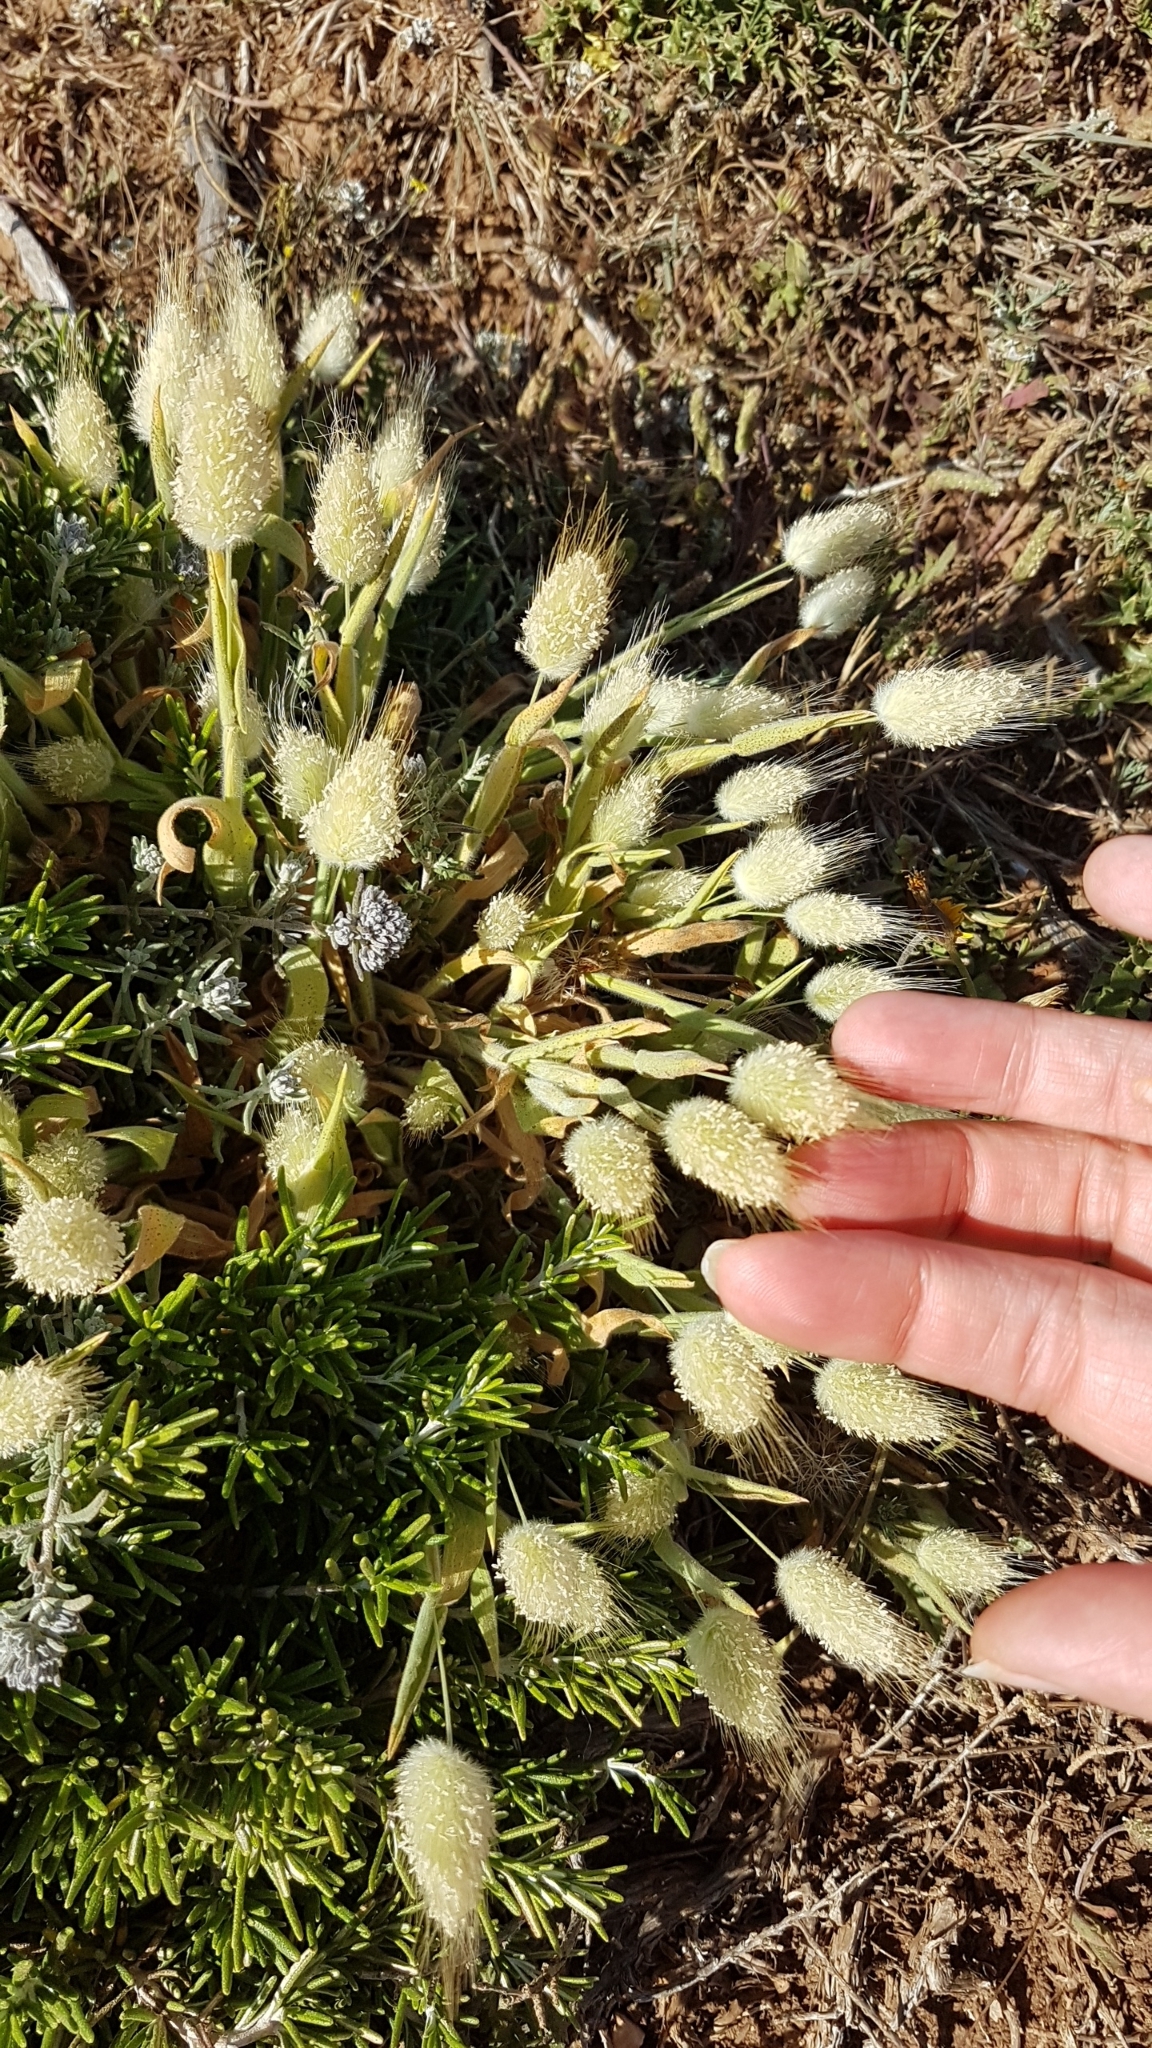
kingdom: Plantae
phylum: Tracheophyta
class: Liliopsida
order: Poales
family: Poaceae
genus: Lagurus
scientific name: Lagurus ovatus
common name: Hare's-tail
